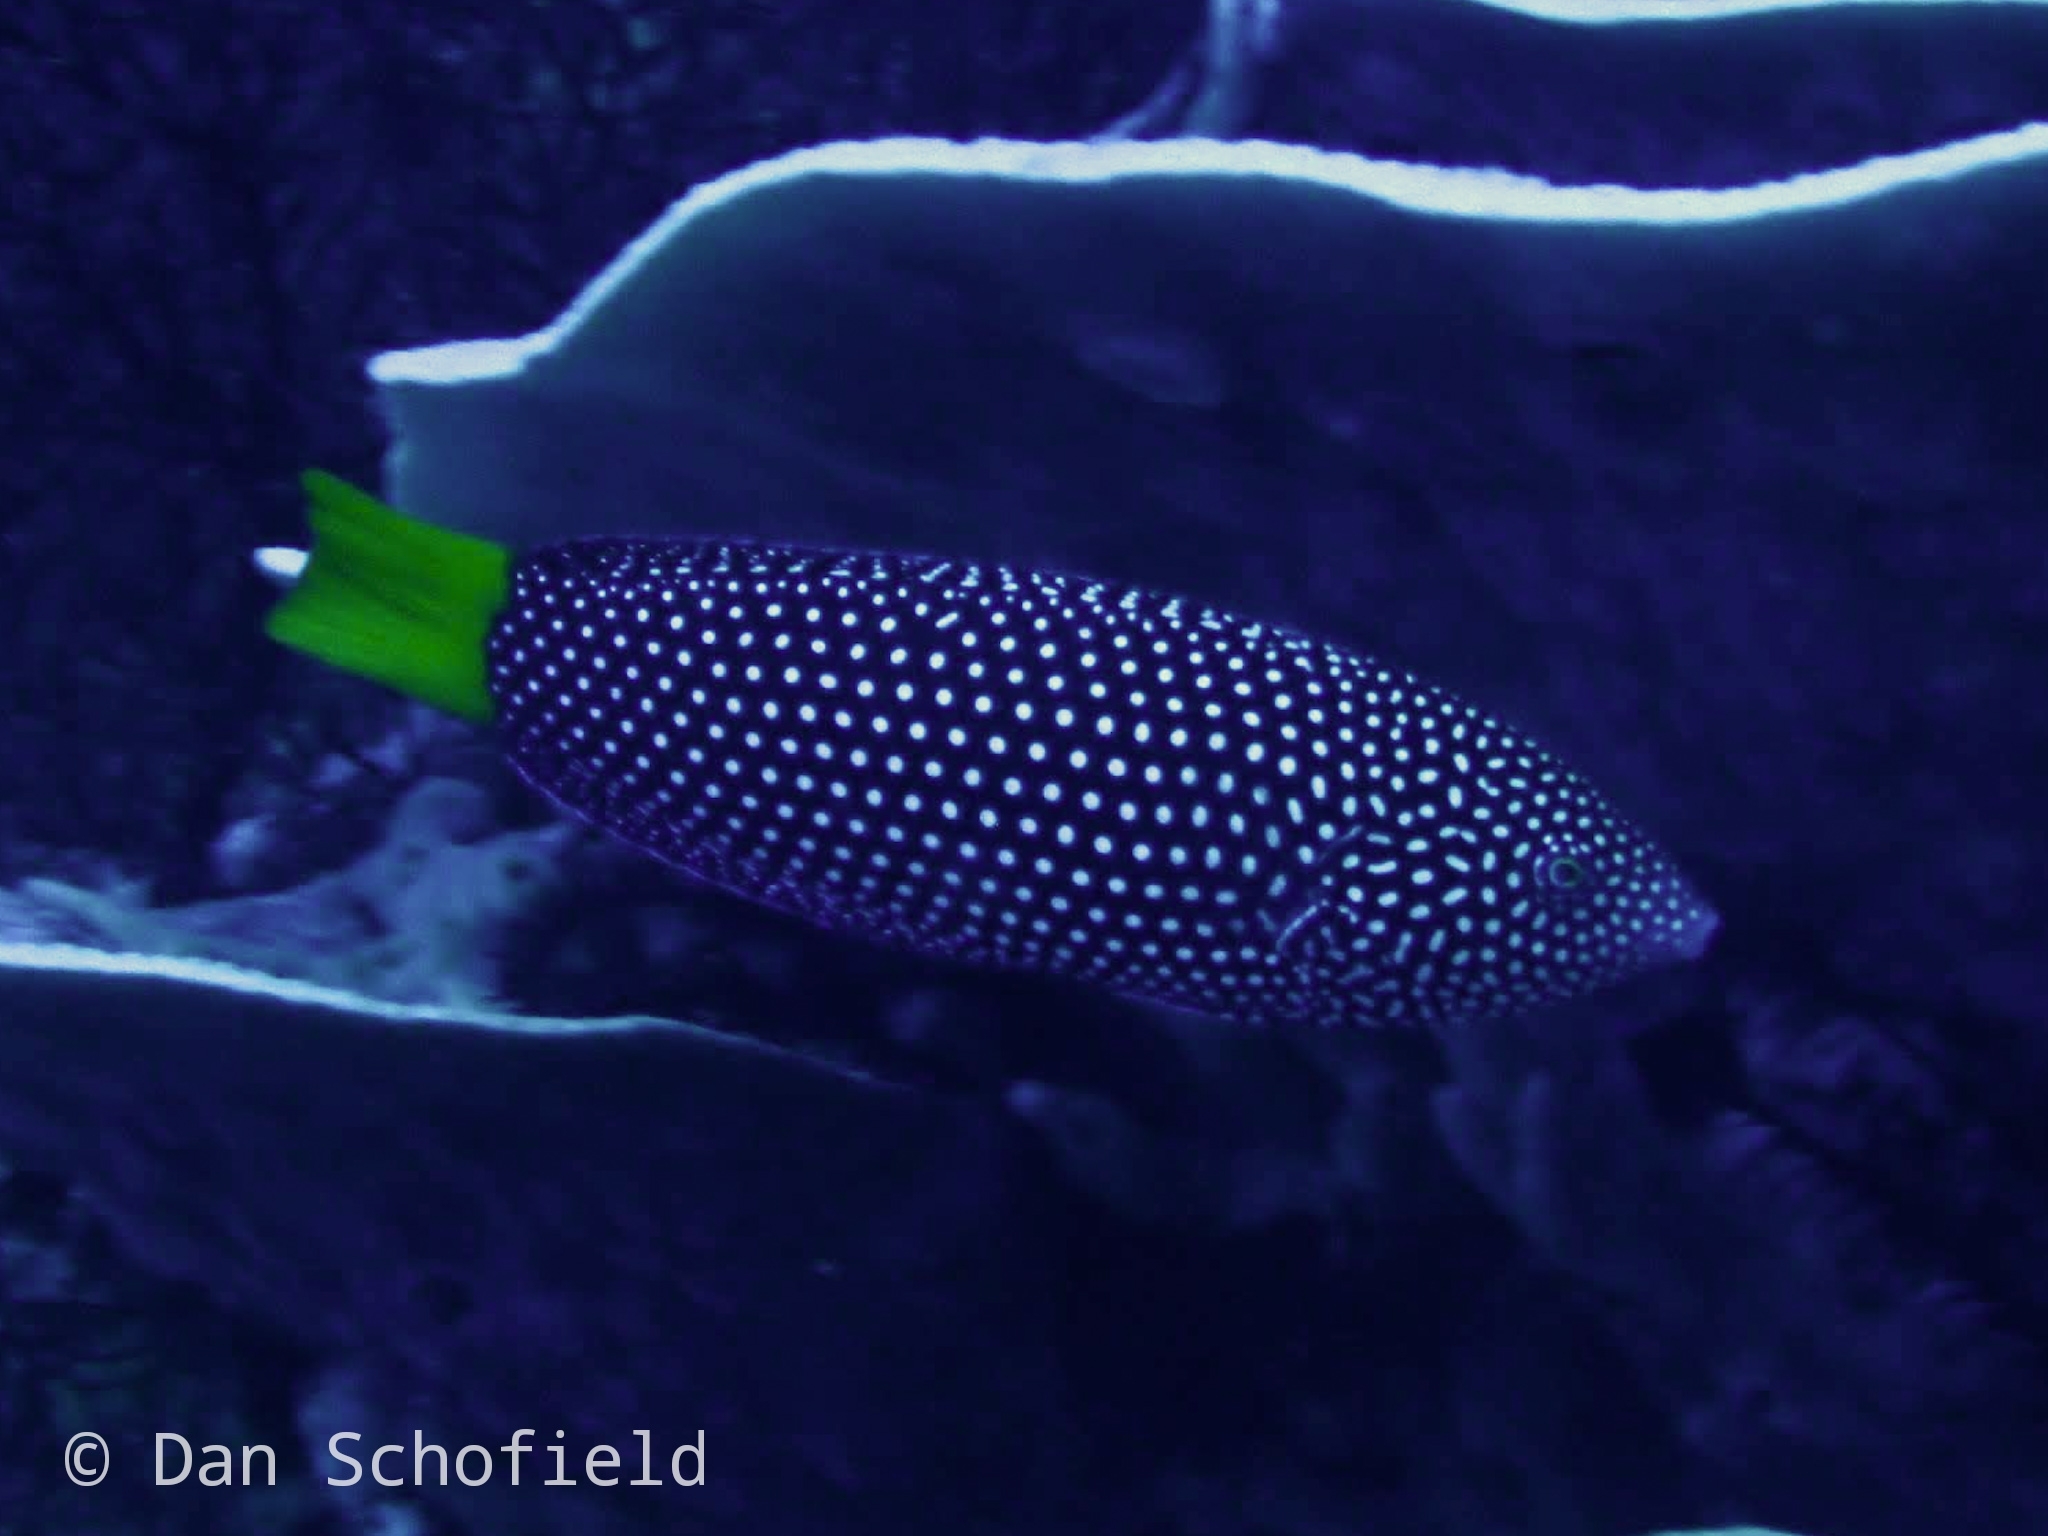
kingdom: Animalia
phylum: Chordata
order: Perciformes
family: Labridae
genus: Anampses
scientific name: Anampses meleagrides
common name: Yellowtail wrasse
